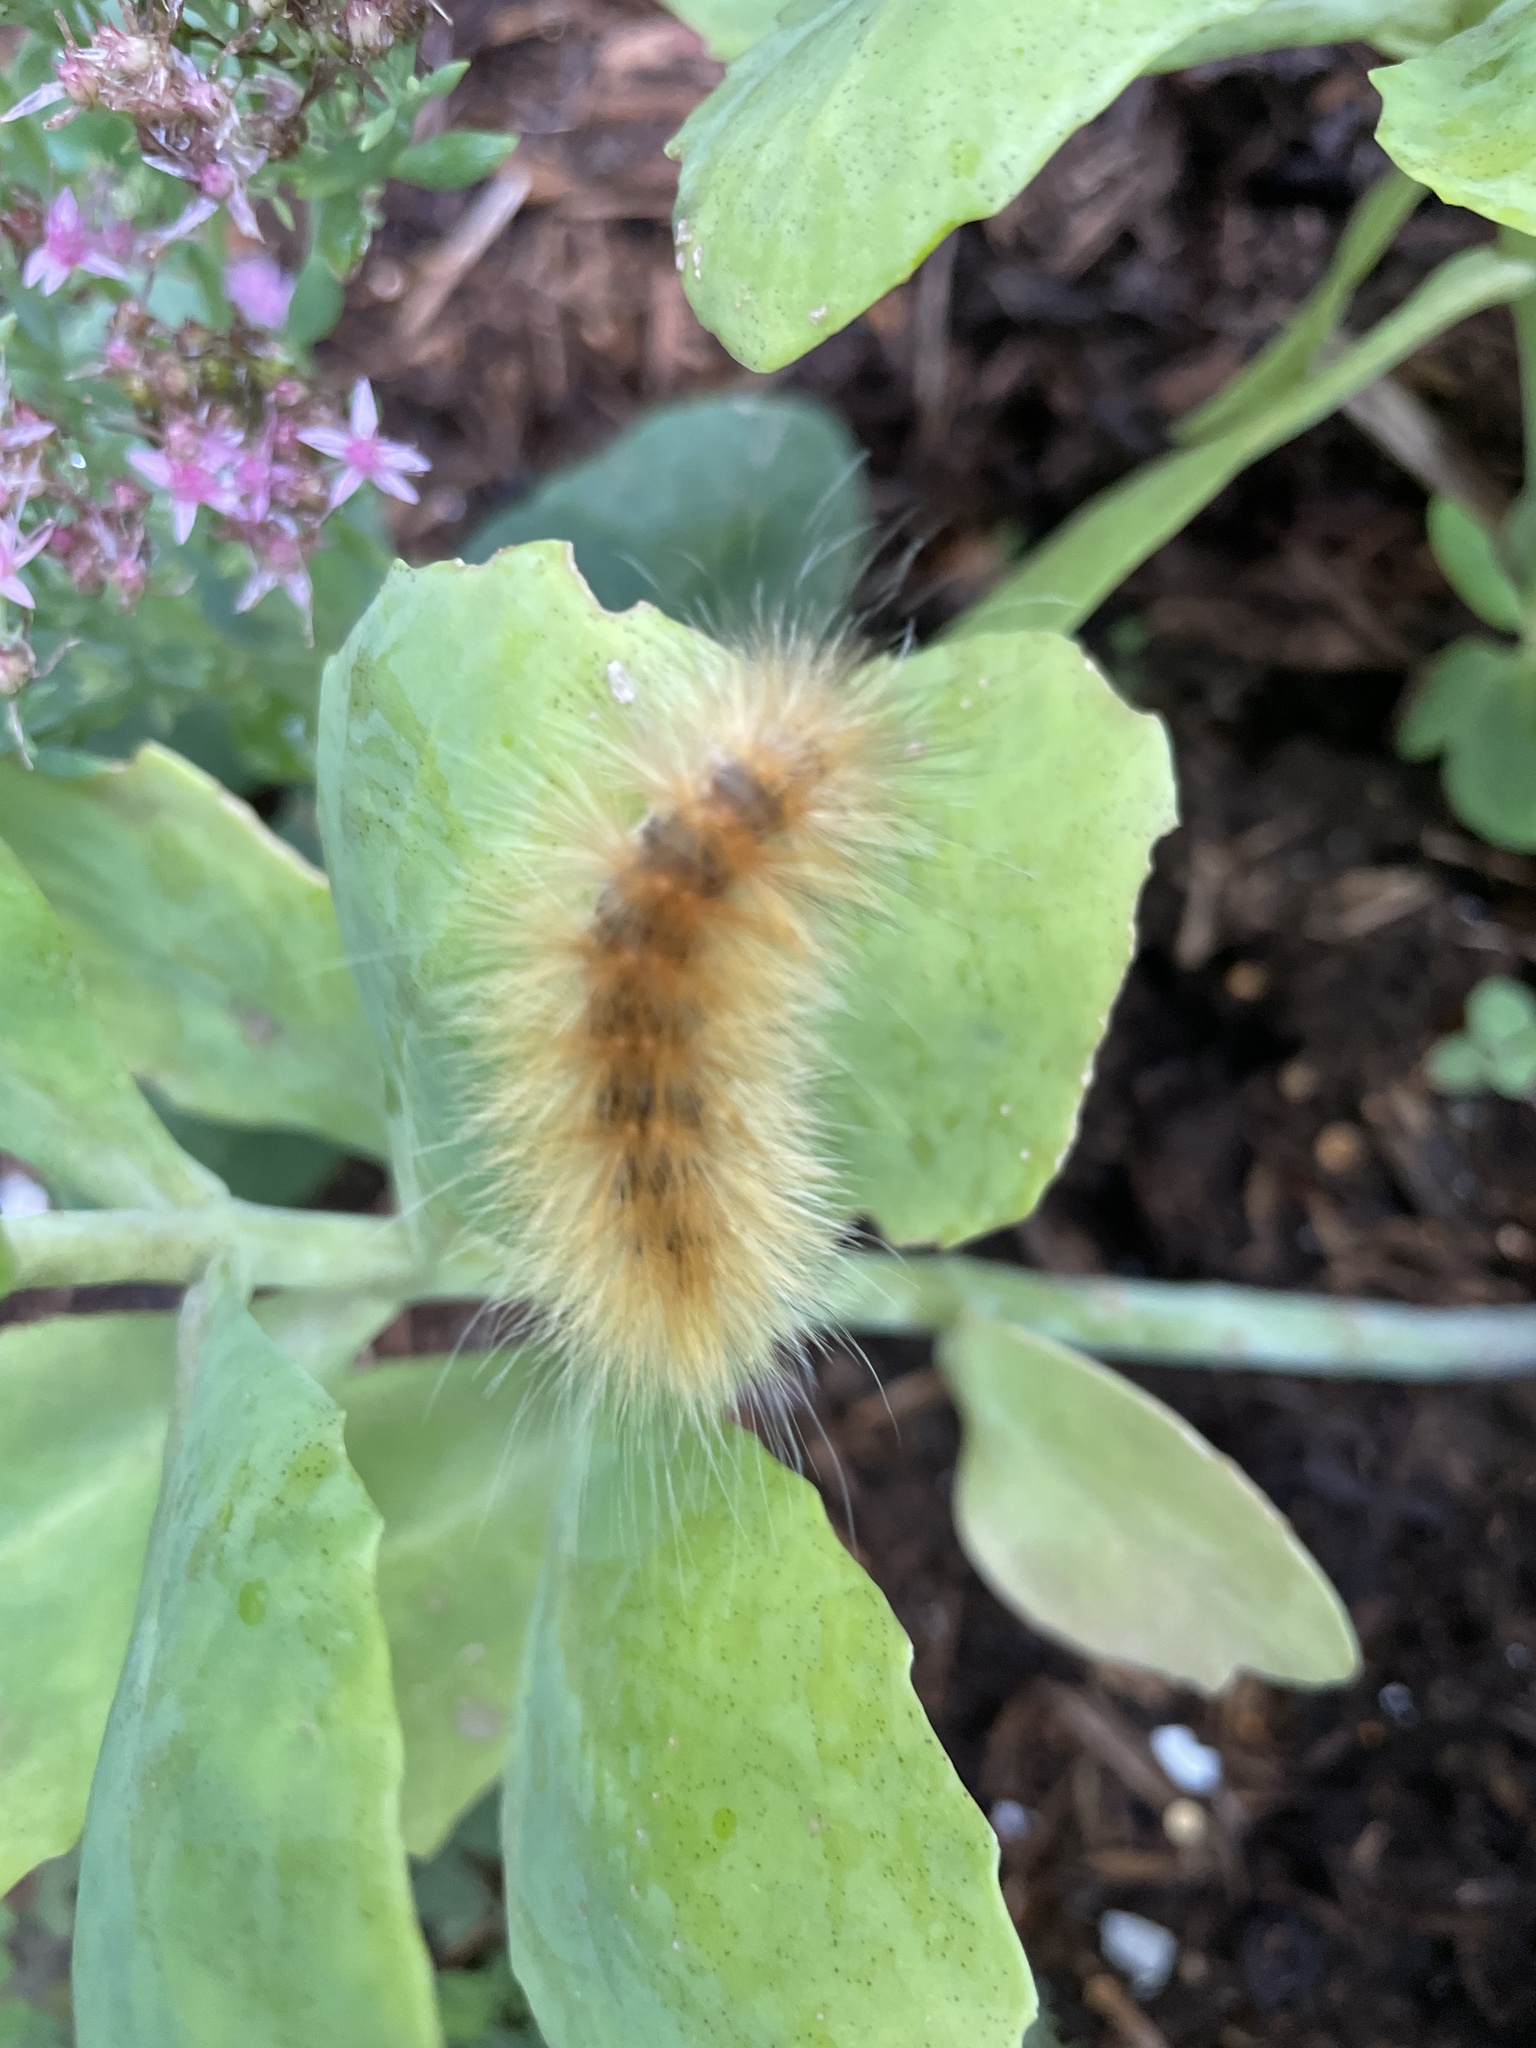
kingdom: Animalia
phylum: Arthropoda
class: Insecta
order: Lepidoptera
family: Erebidae
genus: Spilosoma
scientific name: Spilosoma virginica
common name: Virginia tiger moth
